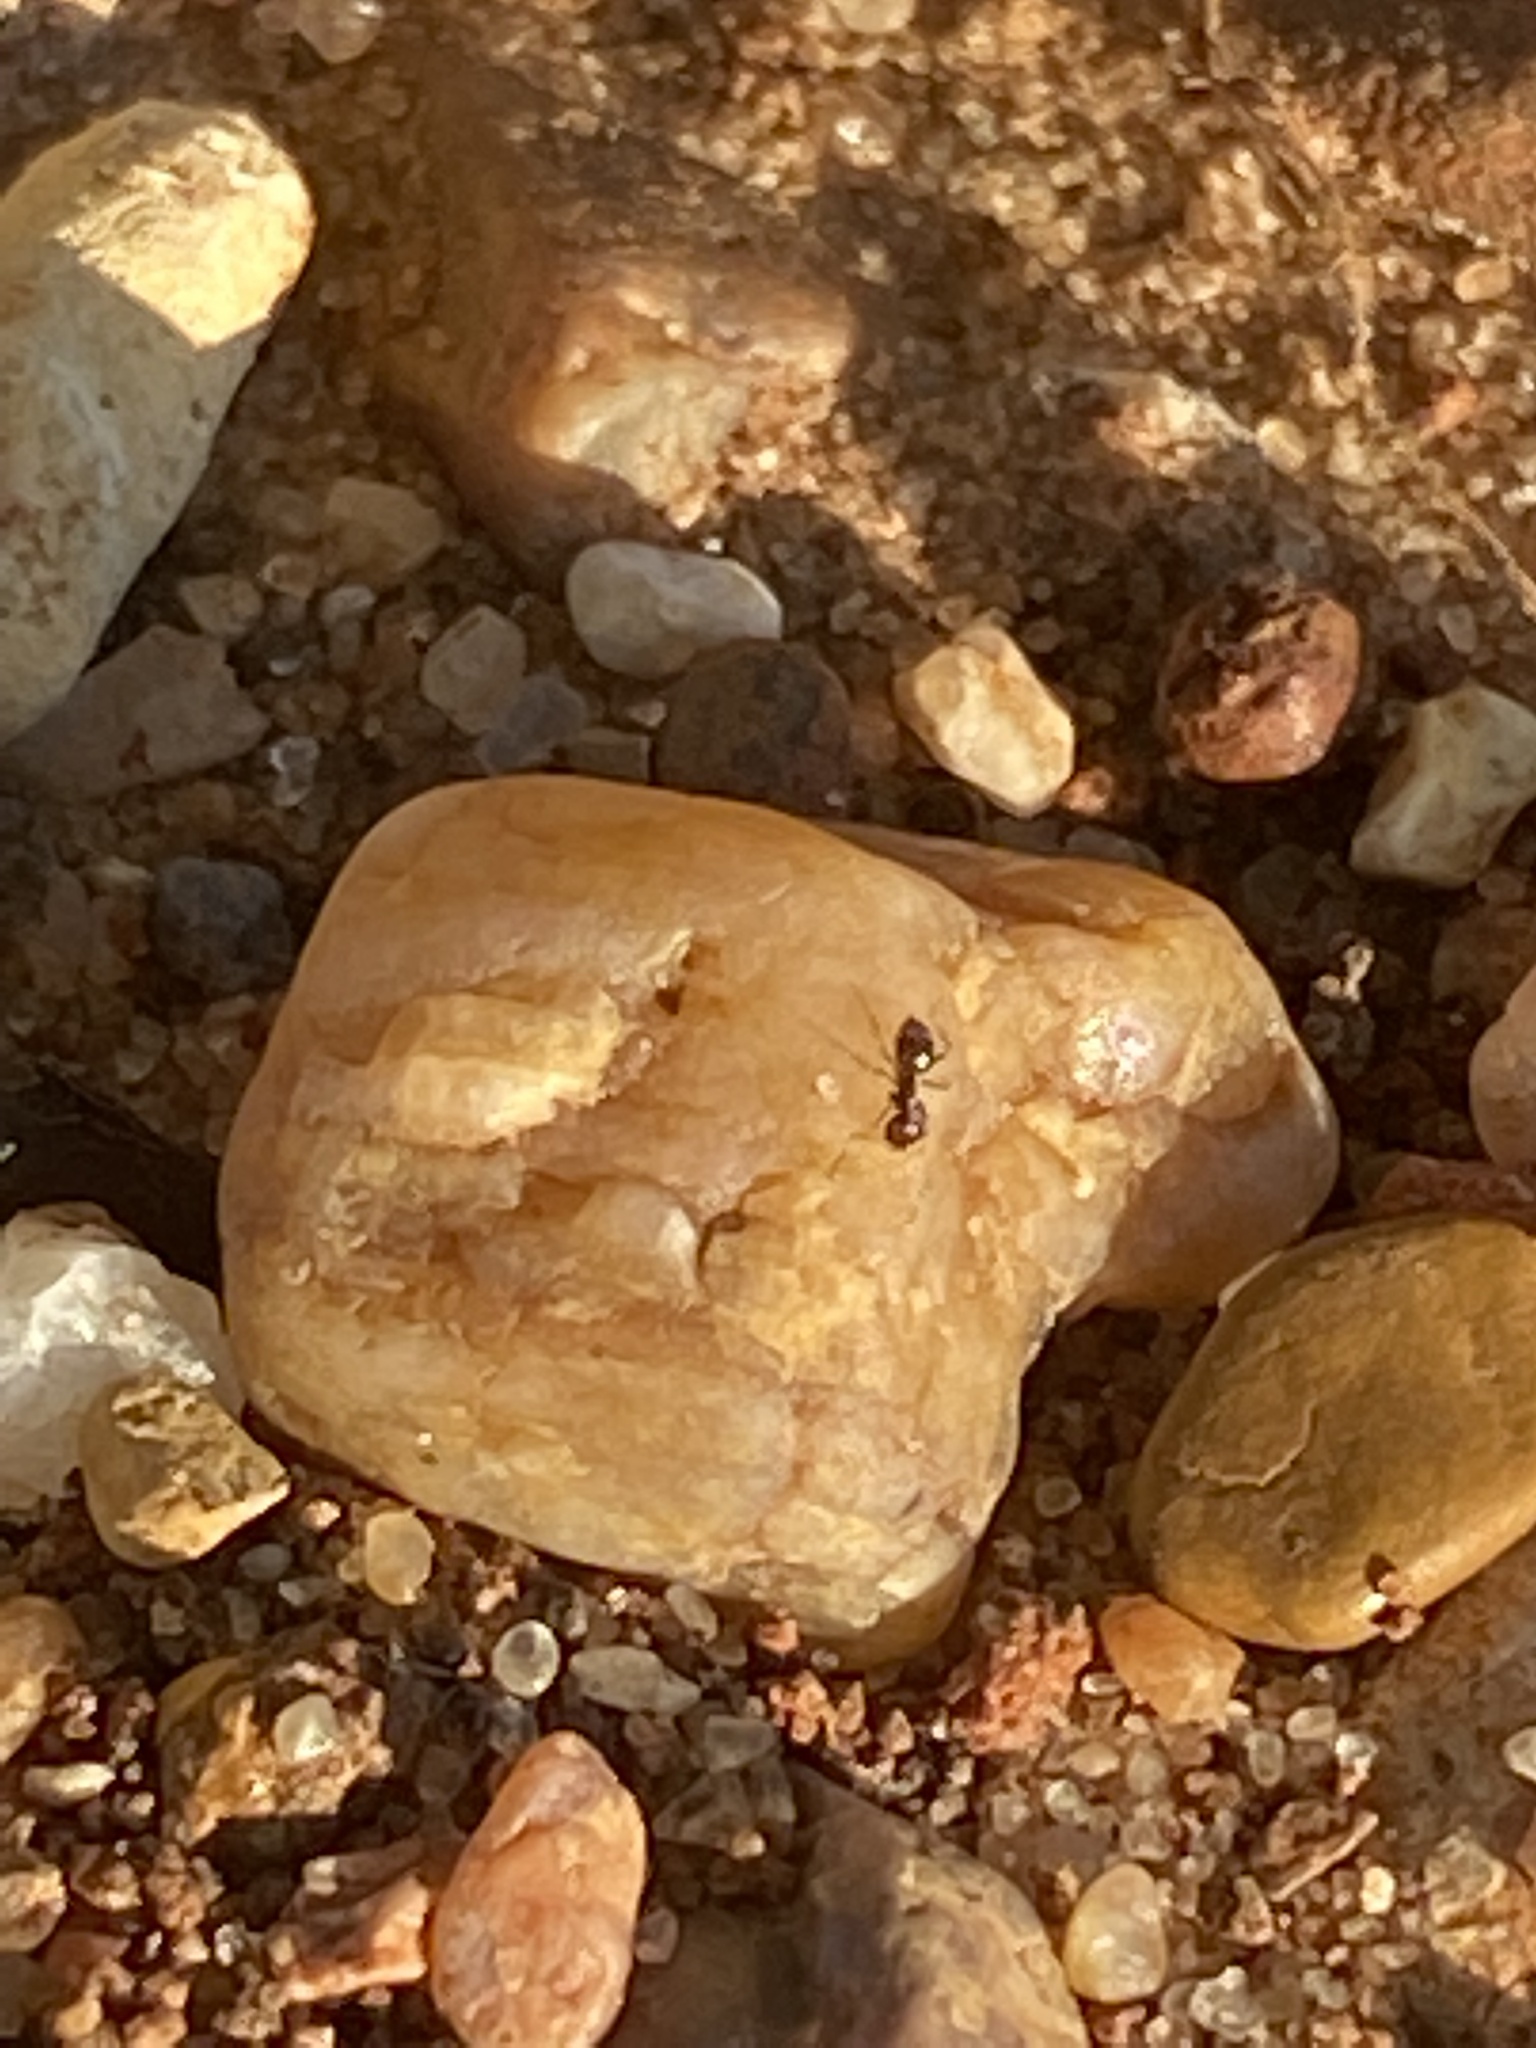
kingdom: Animalia
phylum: Arthropoda
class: Insecta
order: Hymenoptera
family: Formicidae
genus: Brachymyrmex
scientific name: Brachymyrmex patagonicus
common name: Dark rover ant
